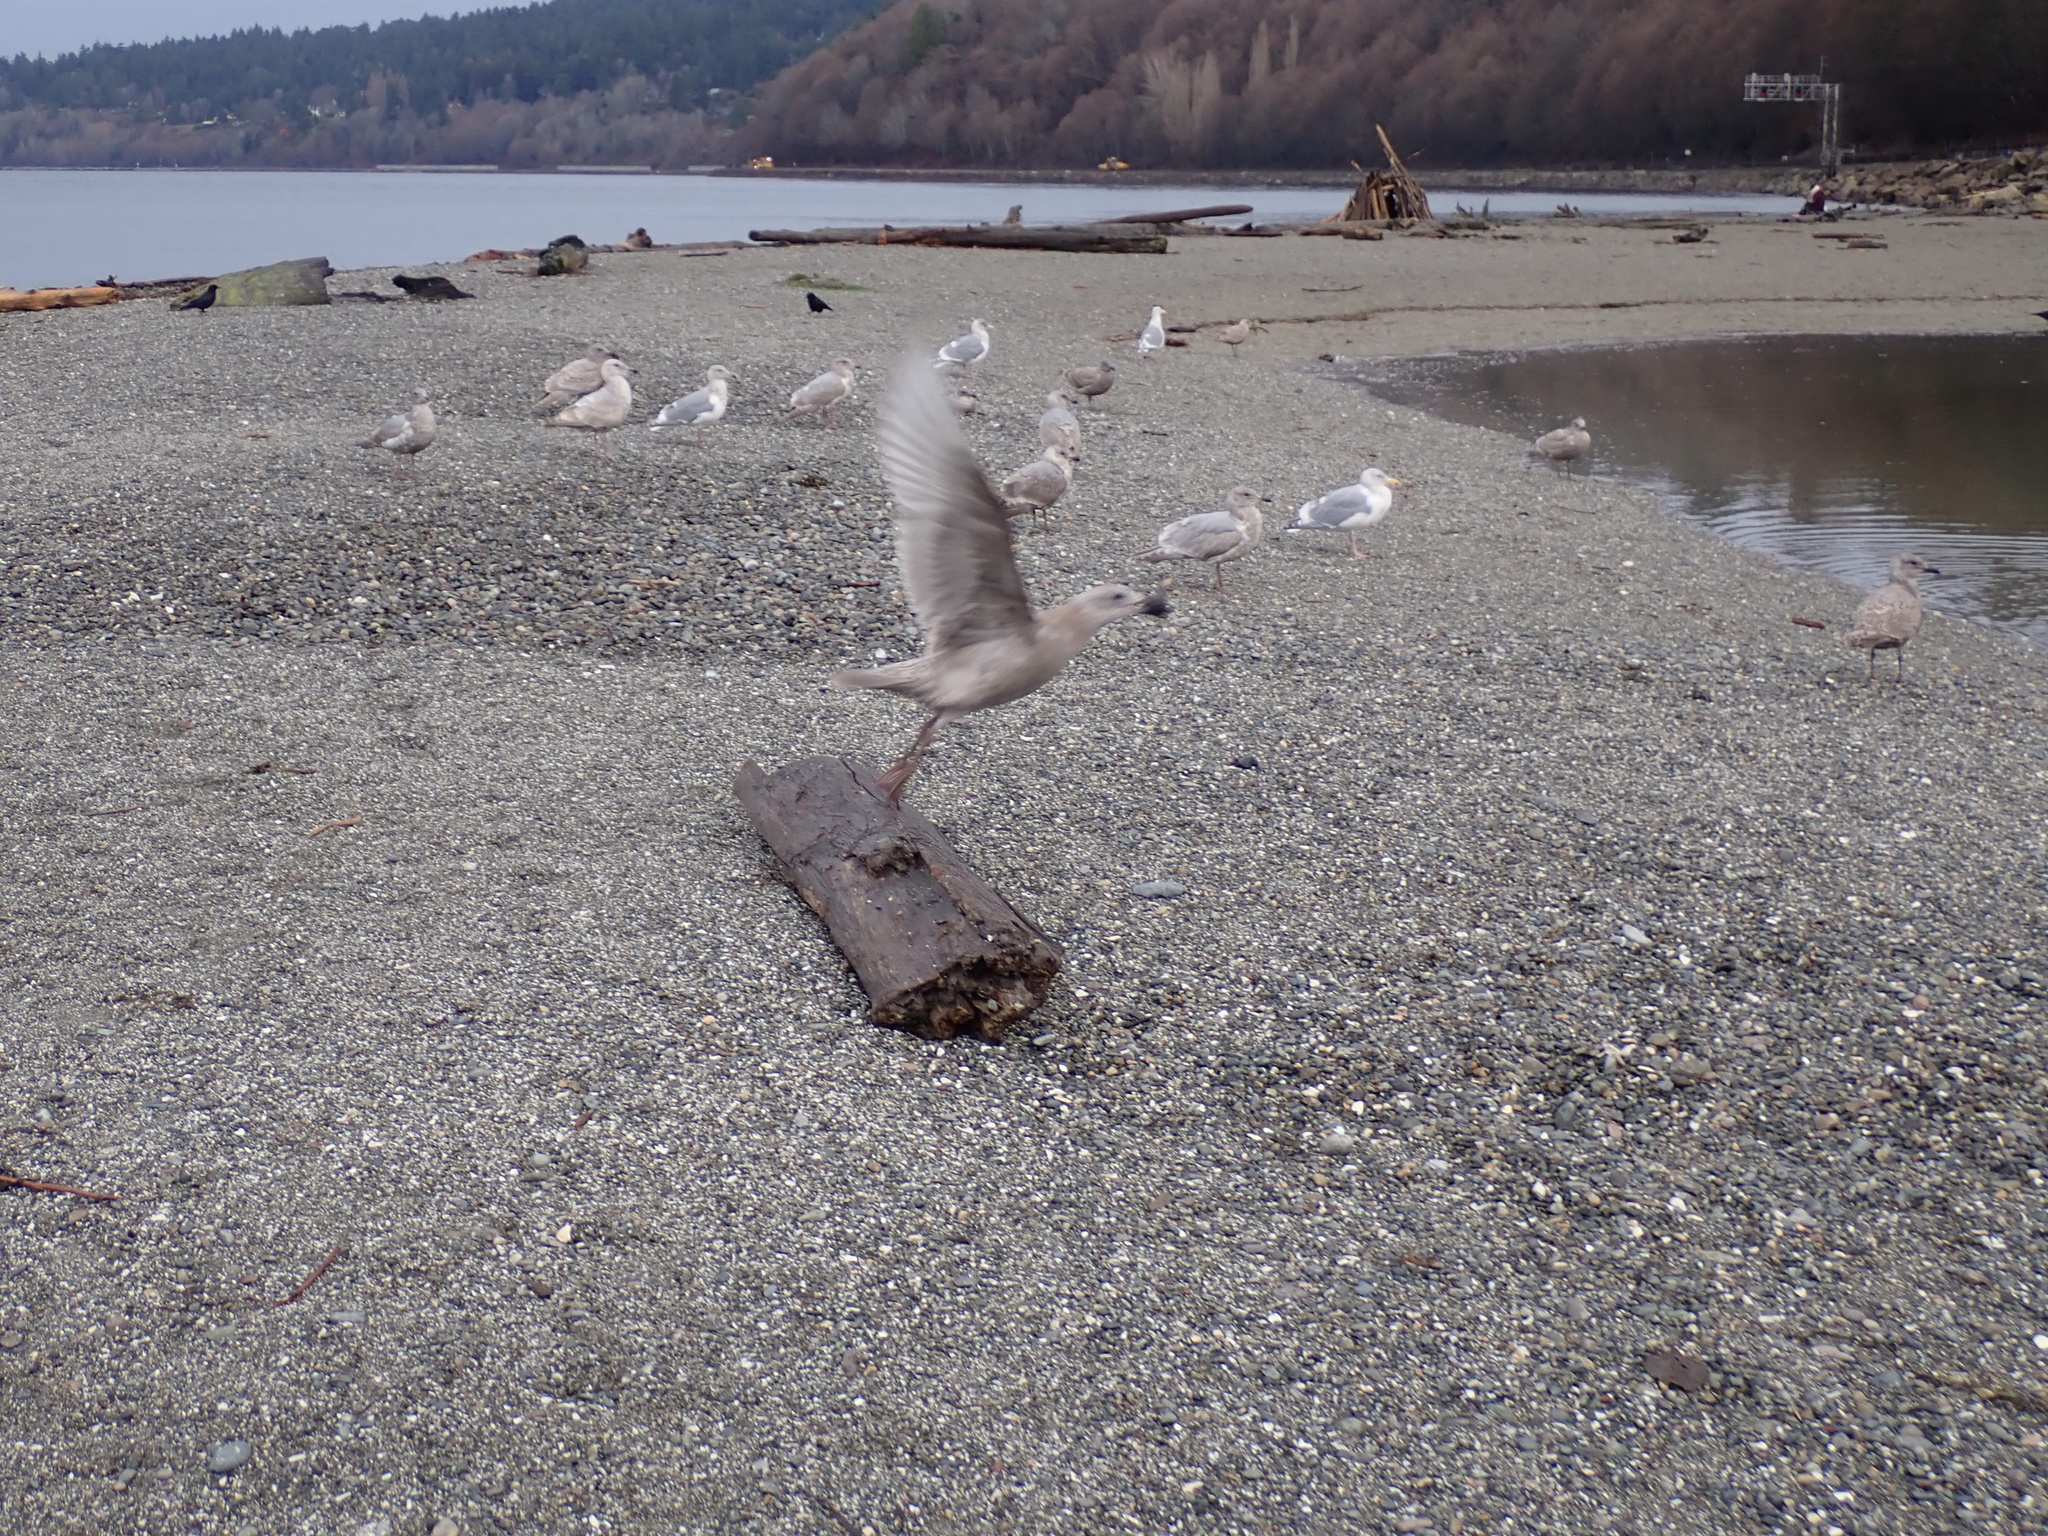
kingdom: Animalia
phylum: Chordata
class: Aves
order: Charadriiformes
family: Laridae
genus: Larus
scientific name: Larus glaucescens
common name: Glaucous-winged gull
